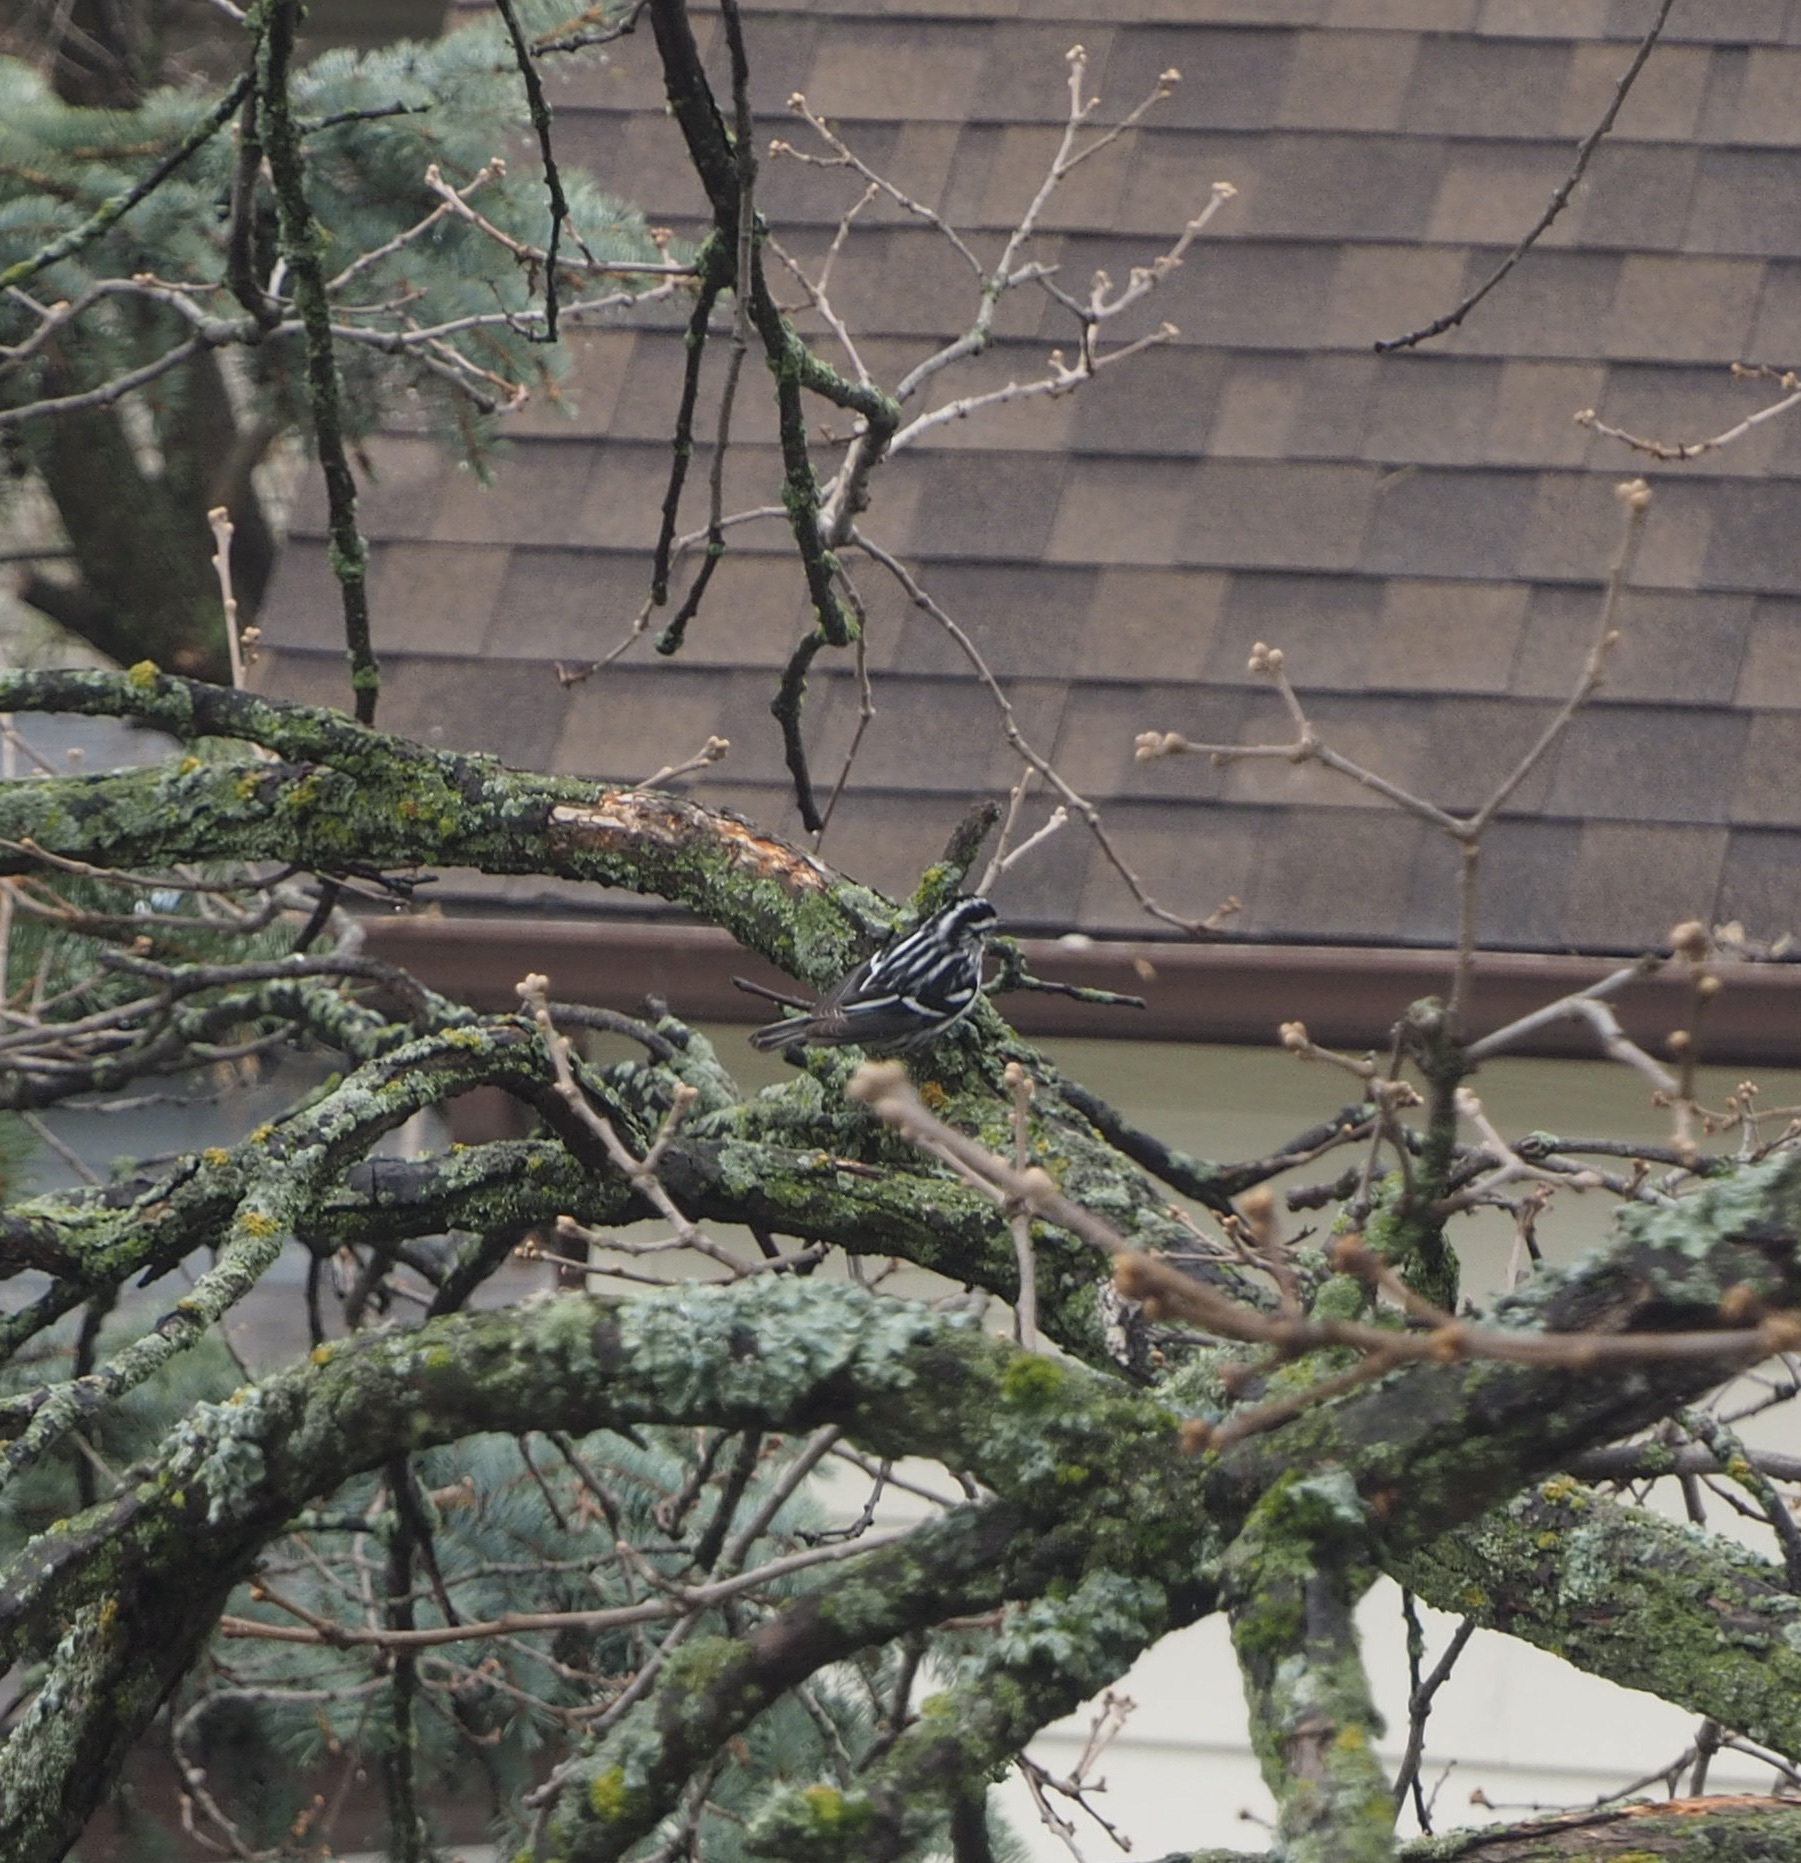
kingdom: Animalia
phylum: Chordata
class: Aves
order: Passeriformes
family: Parulidae
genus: Mniotilta
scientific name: Mniotilta varia
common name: Black-and-white warbler
